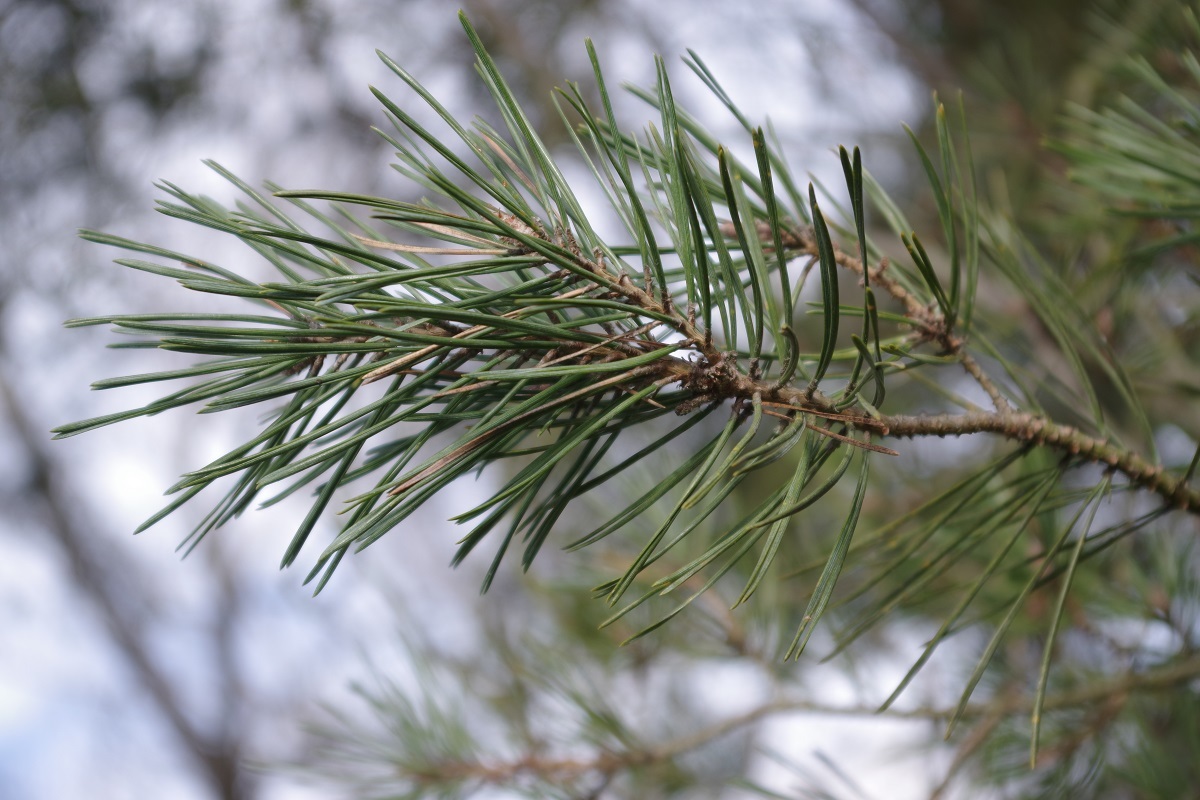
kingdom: Plantae
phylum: Tracheophyta
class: Pinopsida
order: Pinales
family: Pinaceae
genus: Pinus
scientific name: Pinus sylvestris
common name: Scots pine
